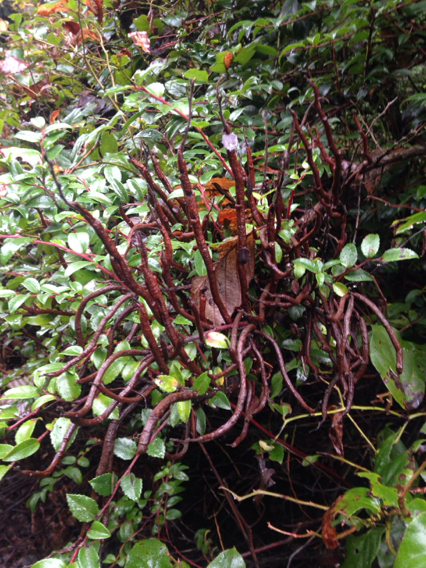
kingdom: Fungi
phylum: Basidiomycota
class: Pucciniomycetes
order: Pucciniales
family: Pucciniastraceae
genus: Calyptospora
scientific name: Calyptospora
